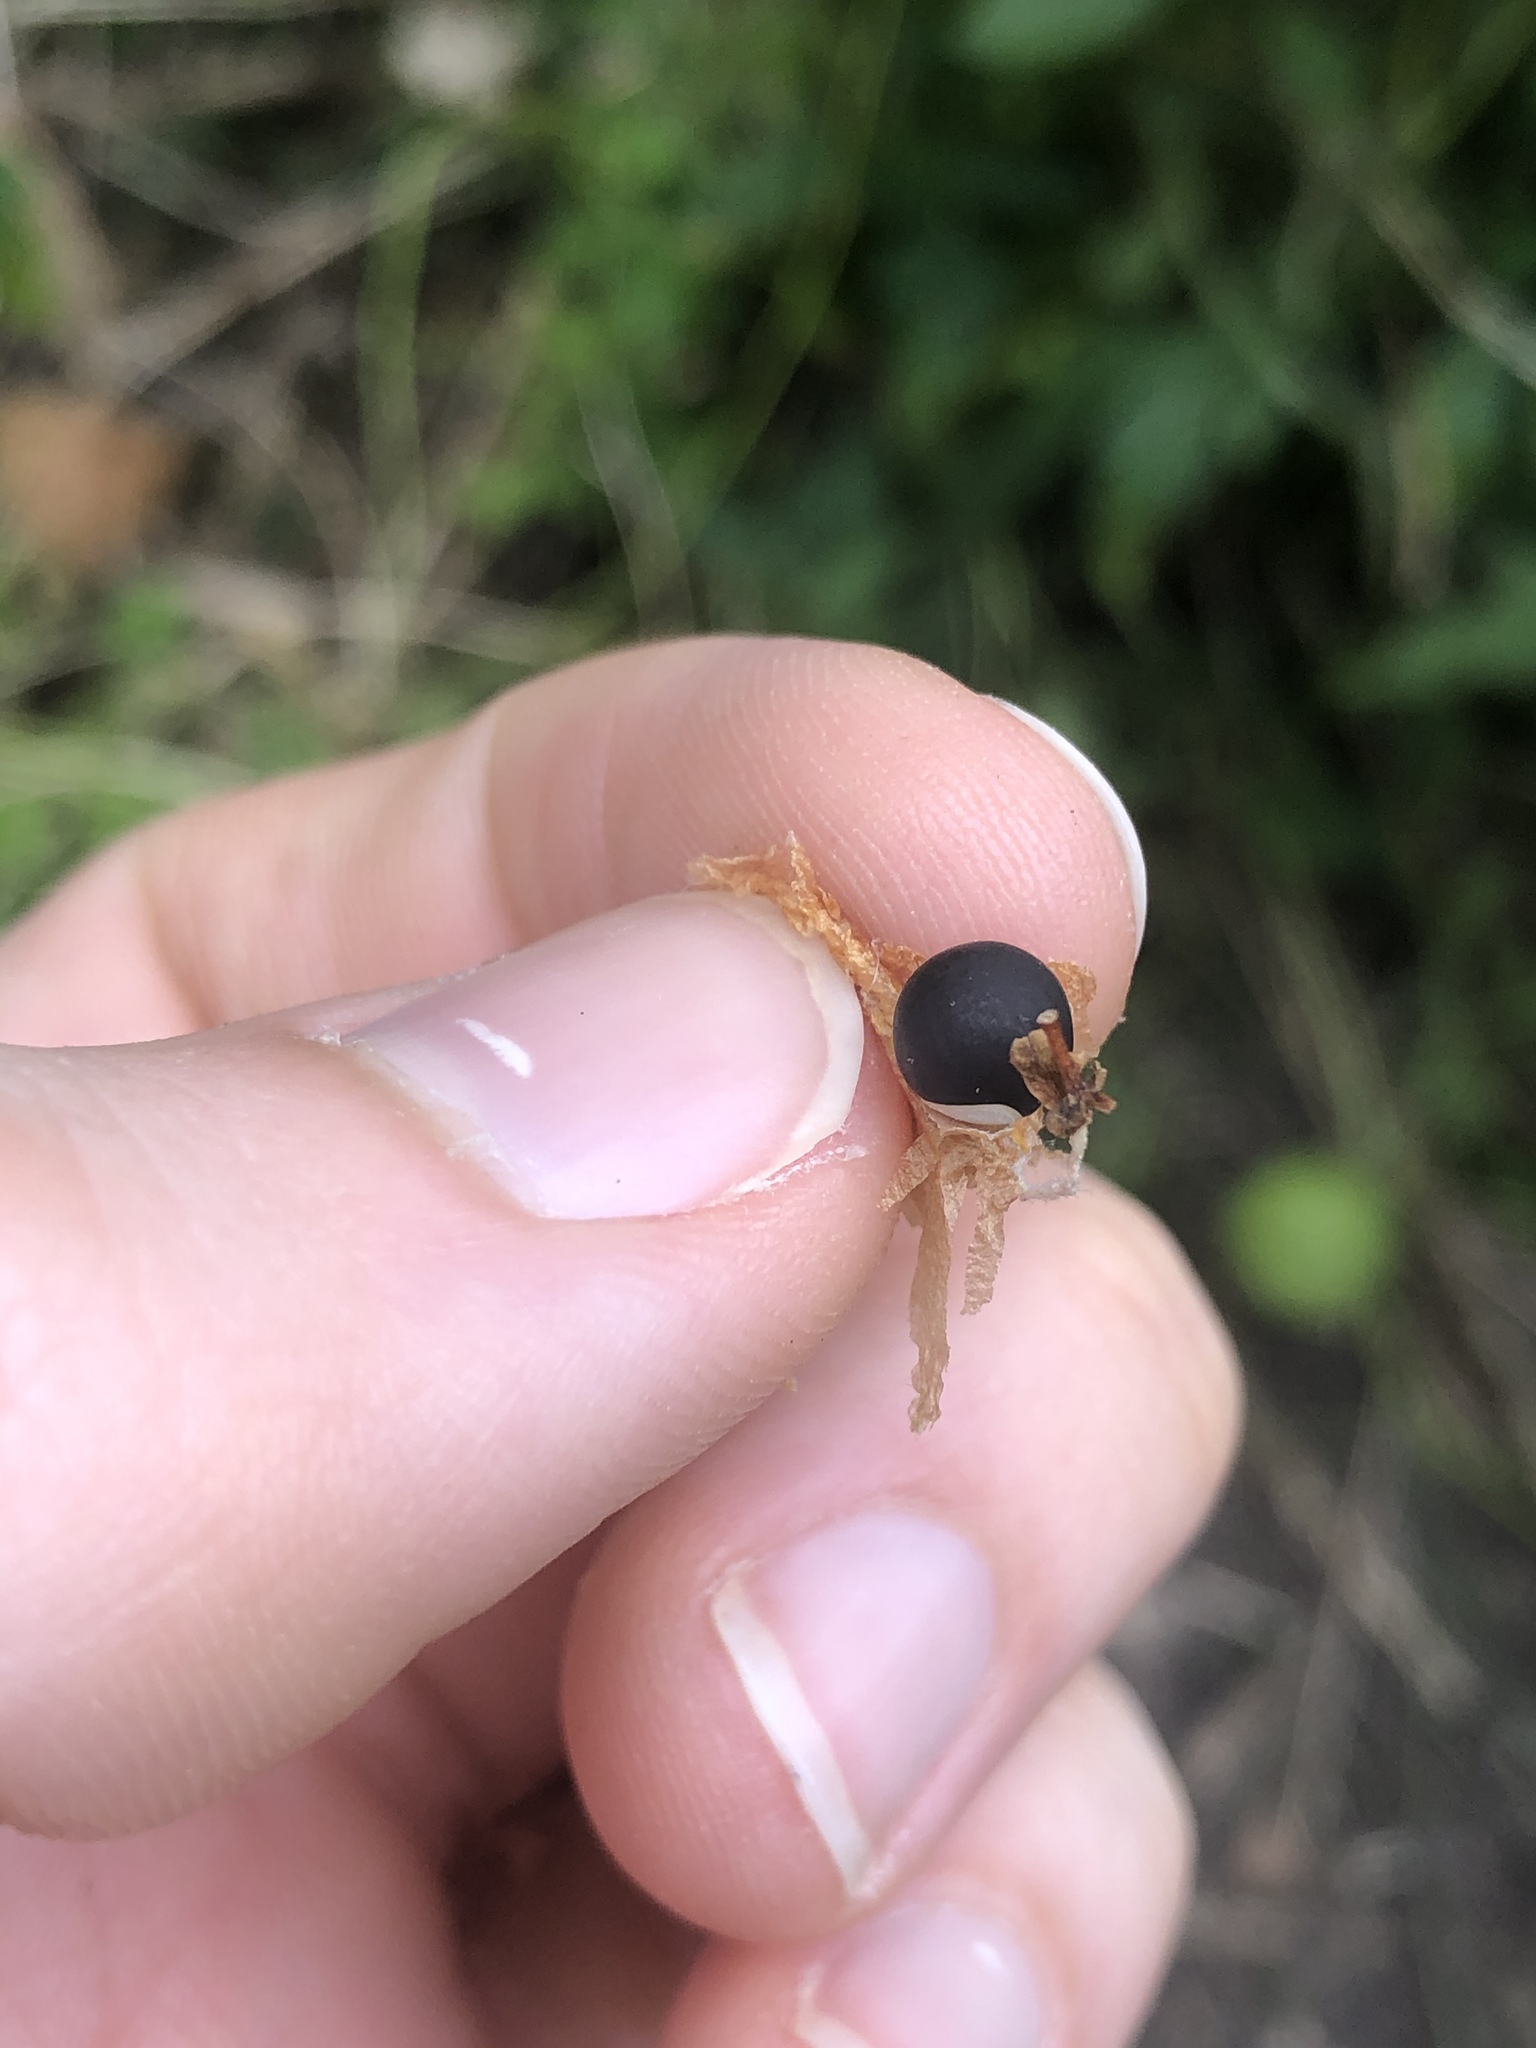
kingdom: Plantae
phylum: Tracheophyta
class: Magnoliopsida
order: Sapindales
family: Sapindaceae
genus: Cardiospermum
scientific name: Cardiospermum halicacabum
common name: Balloon vine
